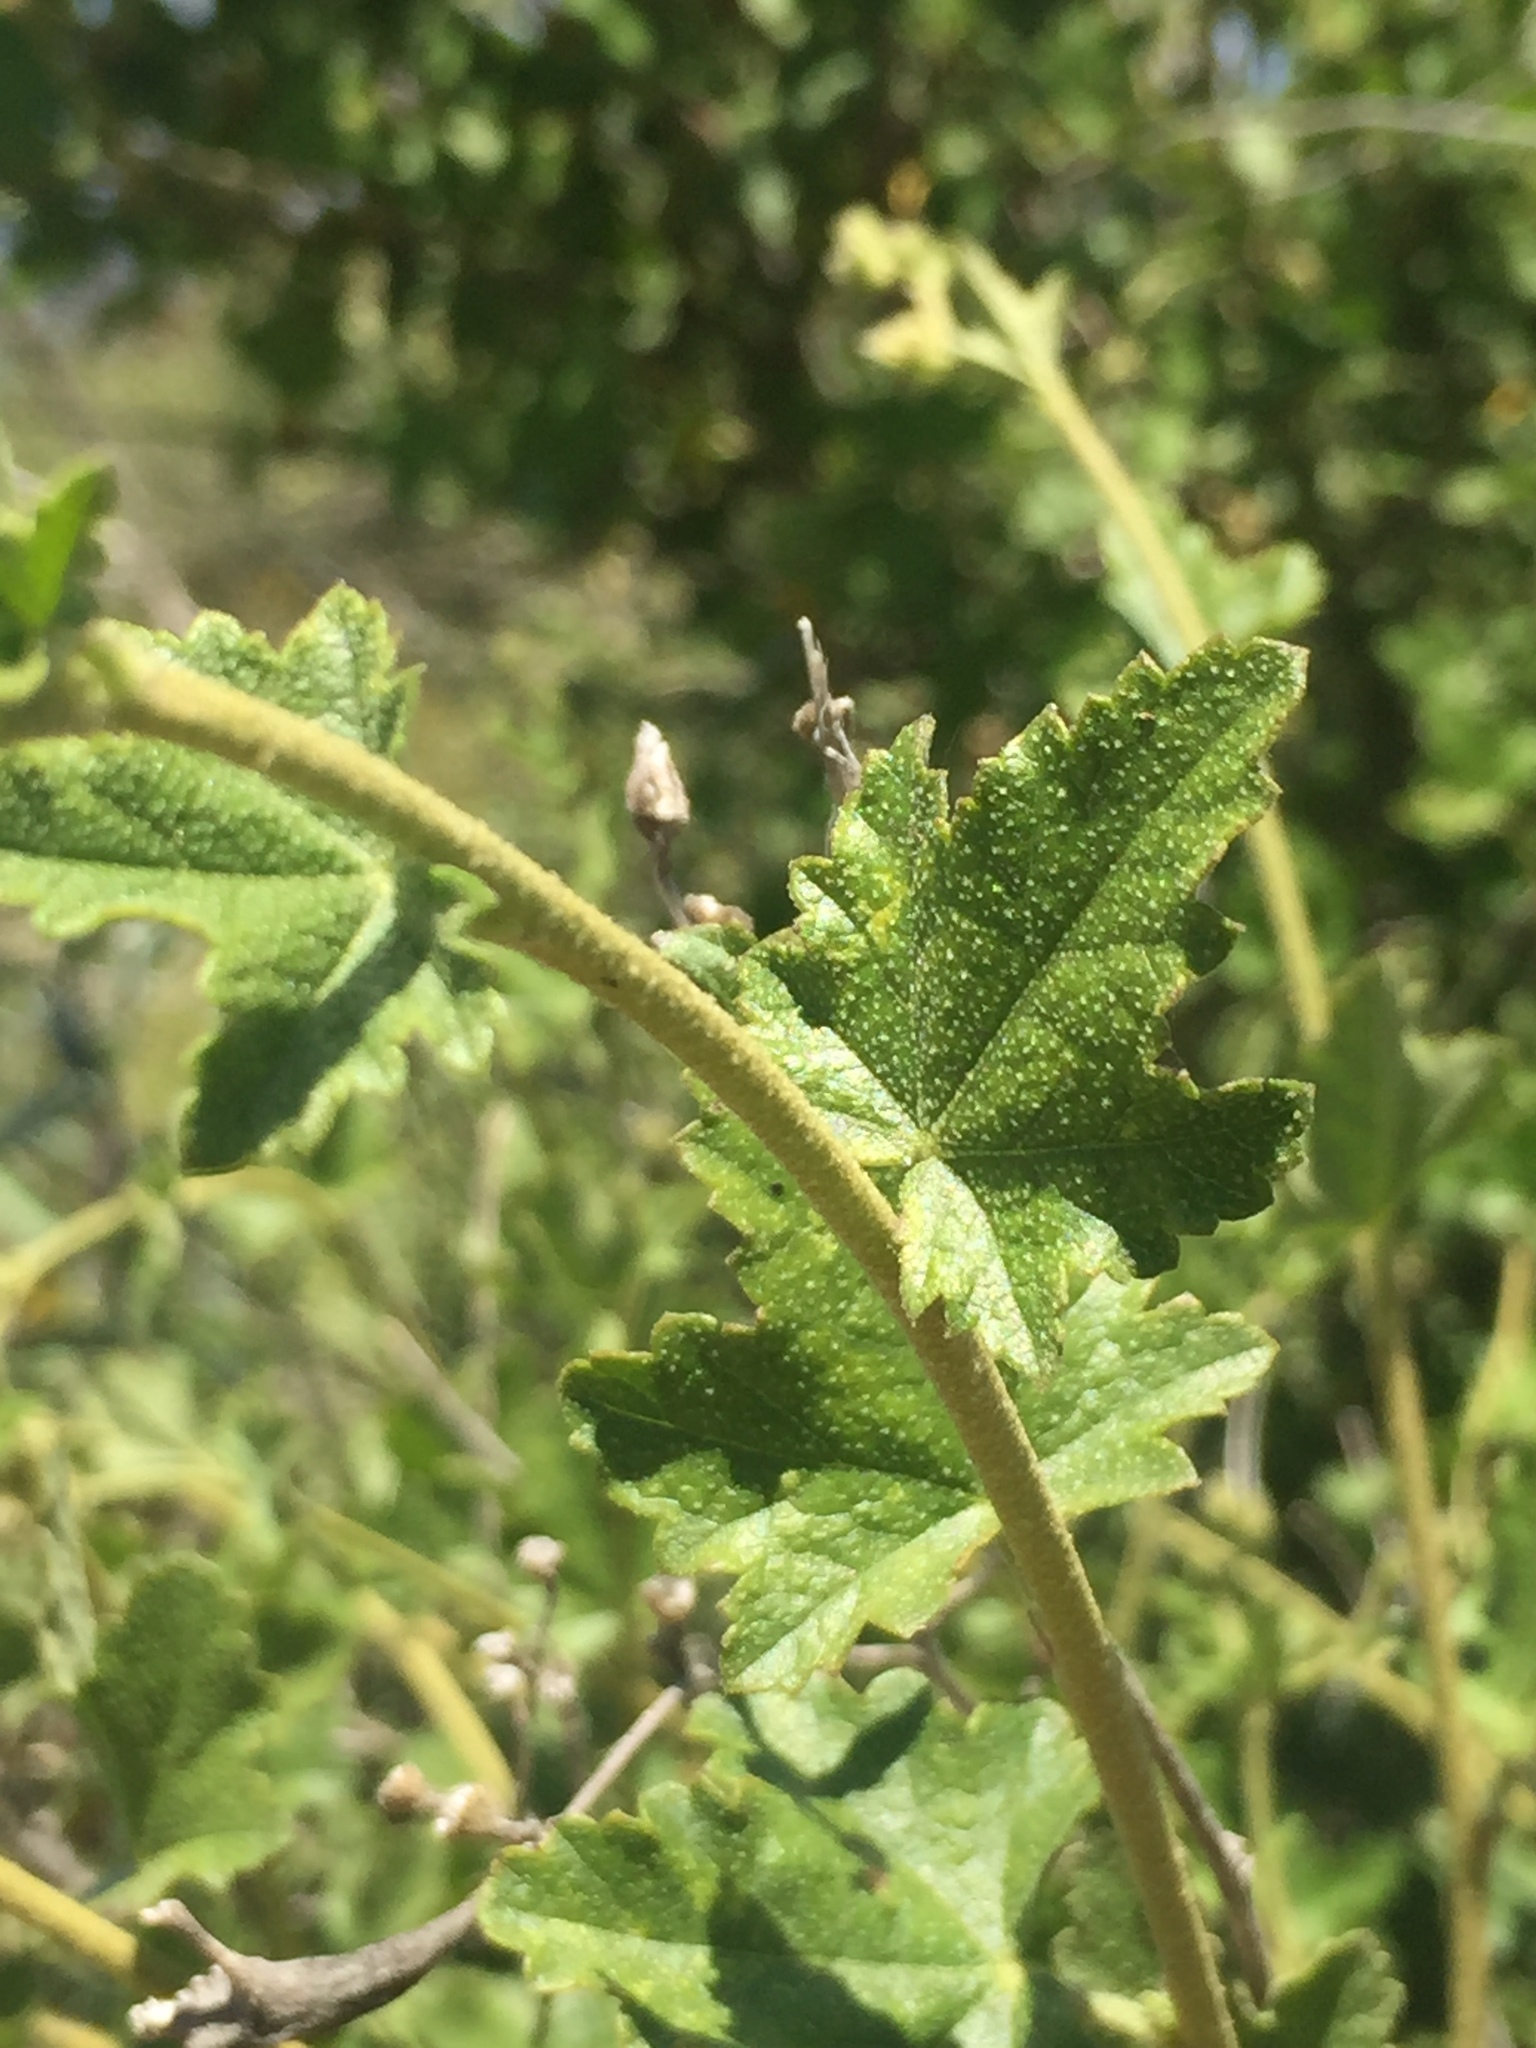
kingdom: Plantae
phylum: Tracheophyta
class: Magnoliopsida
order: Malvales
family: Malvaceae
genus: Malacothamnus
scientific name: Malacothamnus fasciculatus
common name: Sant cruz island bush-mallow
